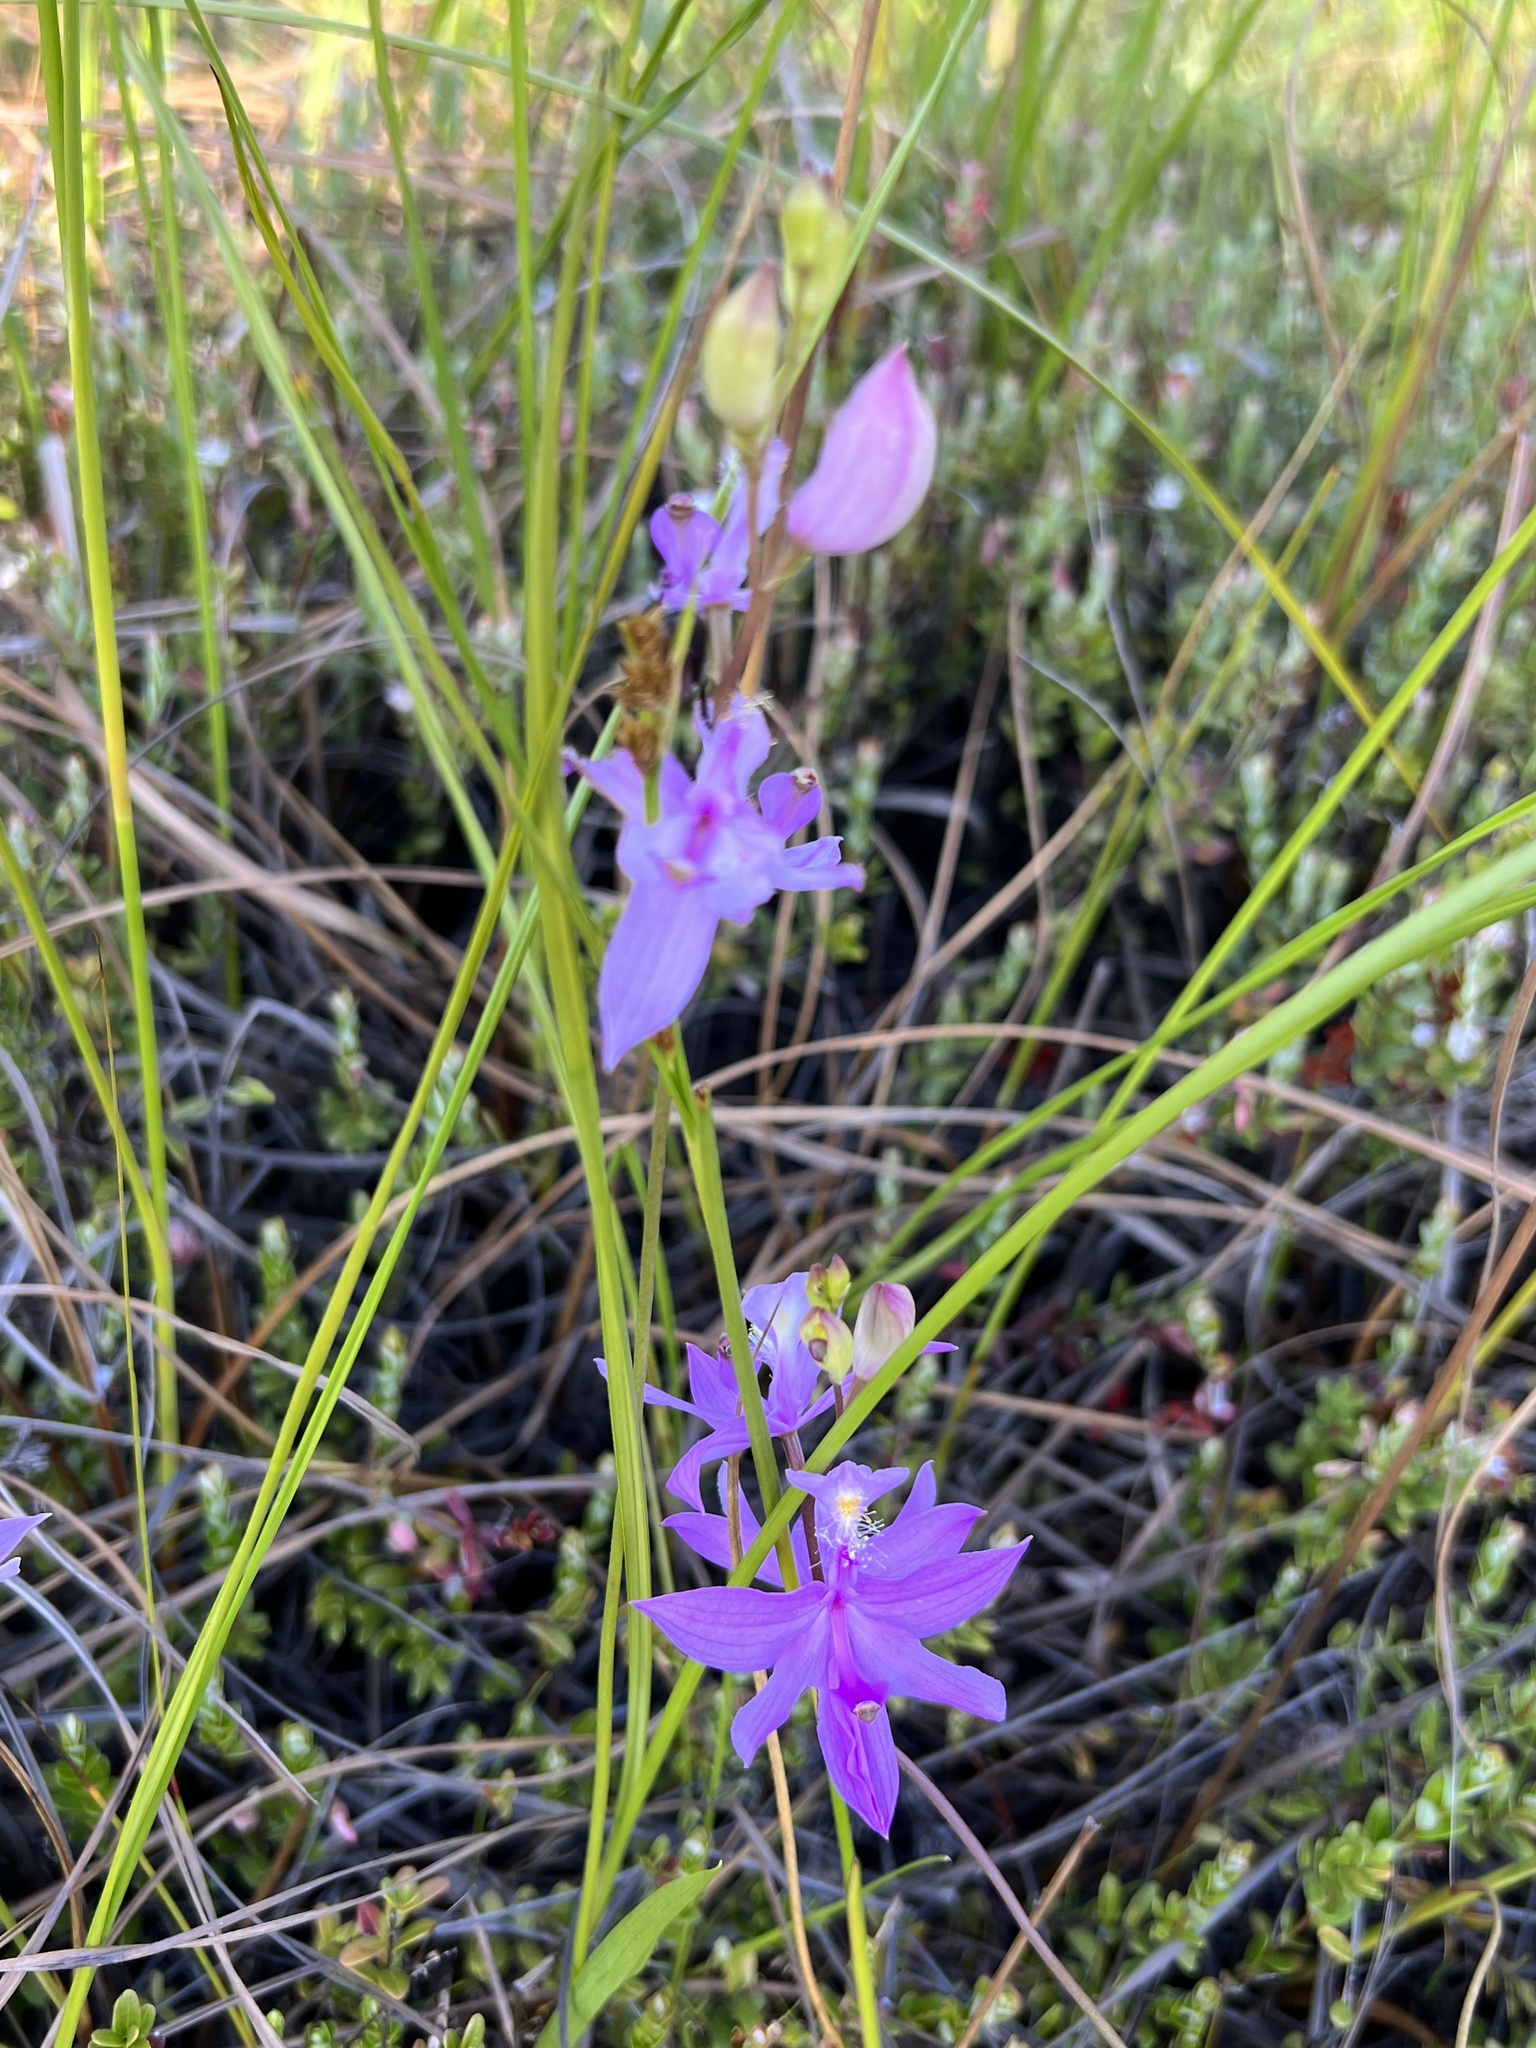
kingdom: Plantae
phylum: Tracheophyta
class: Liliopsida
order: Asparagales
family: Orchidaceae
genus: Calopogon
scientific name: Calopogon tuberosus
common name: Grass-pink
